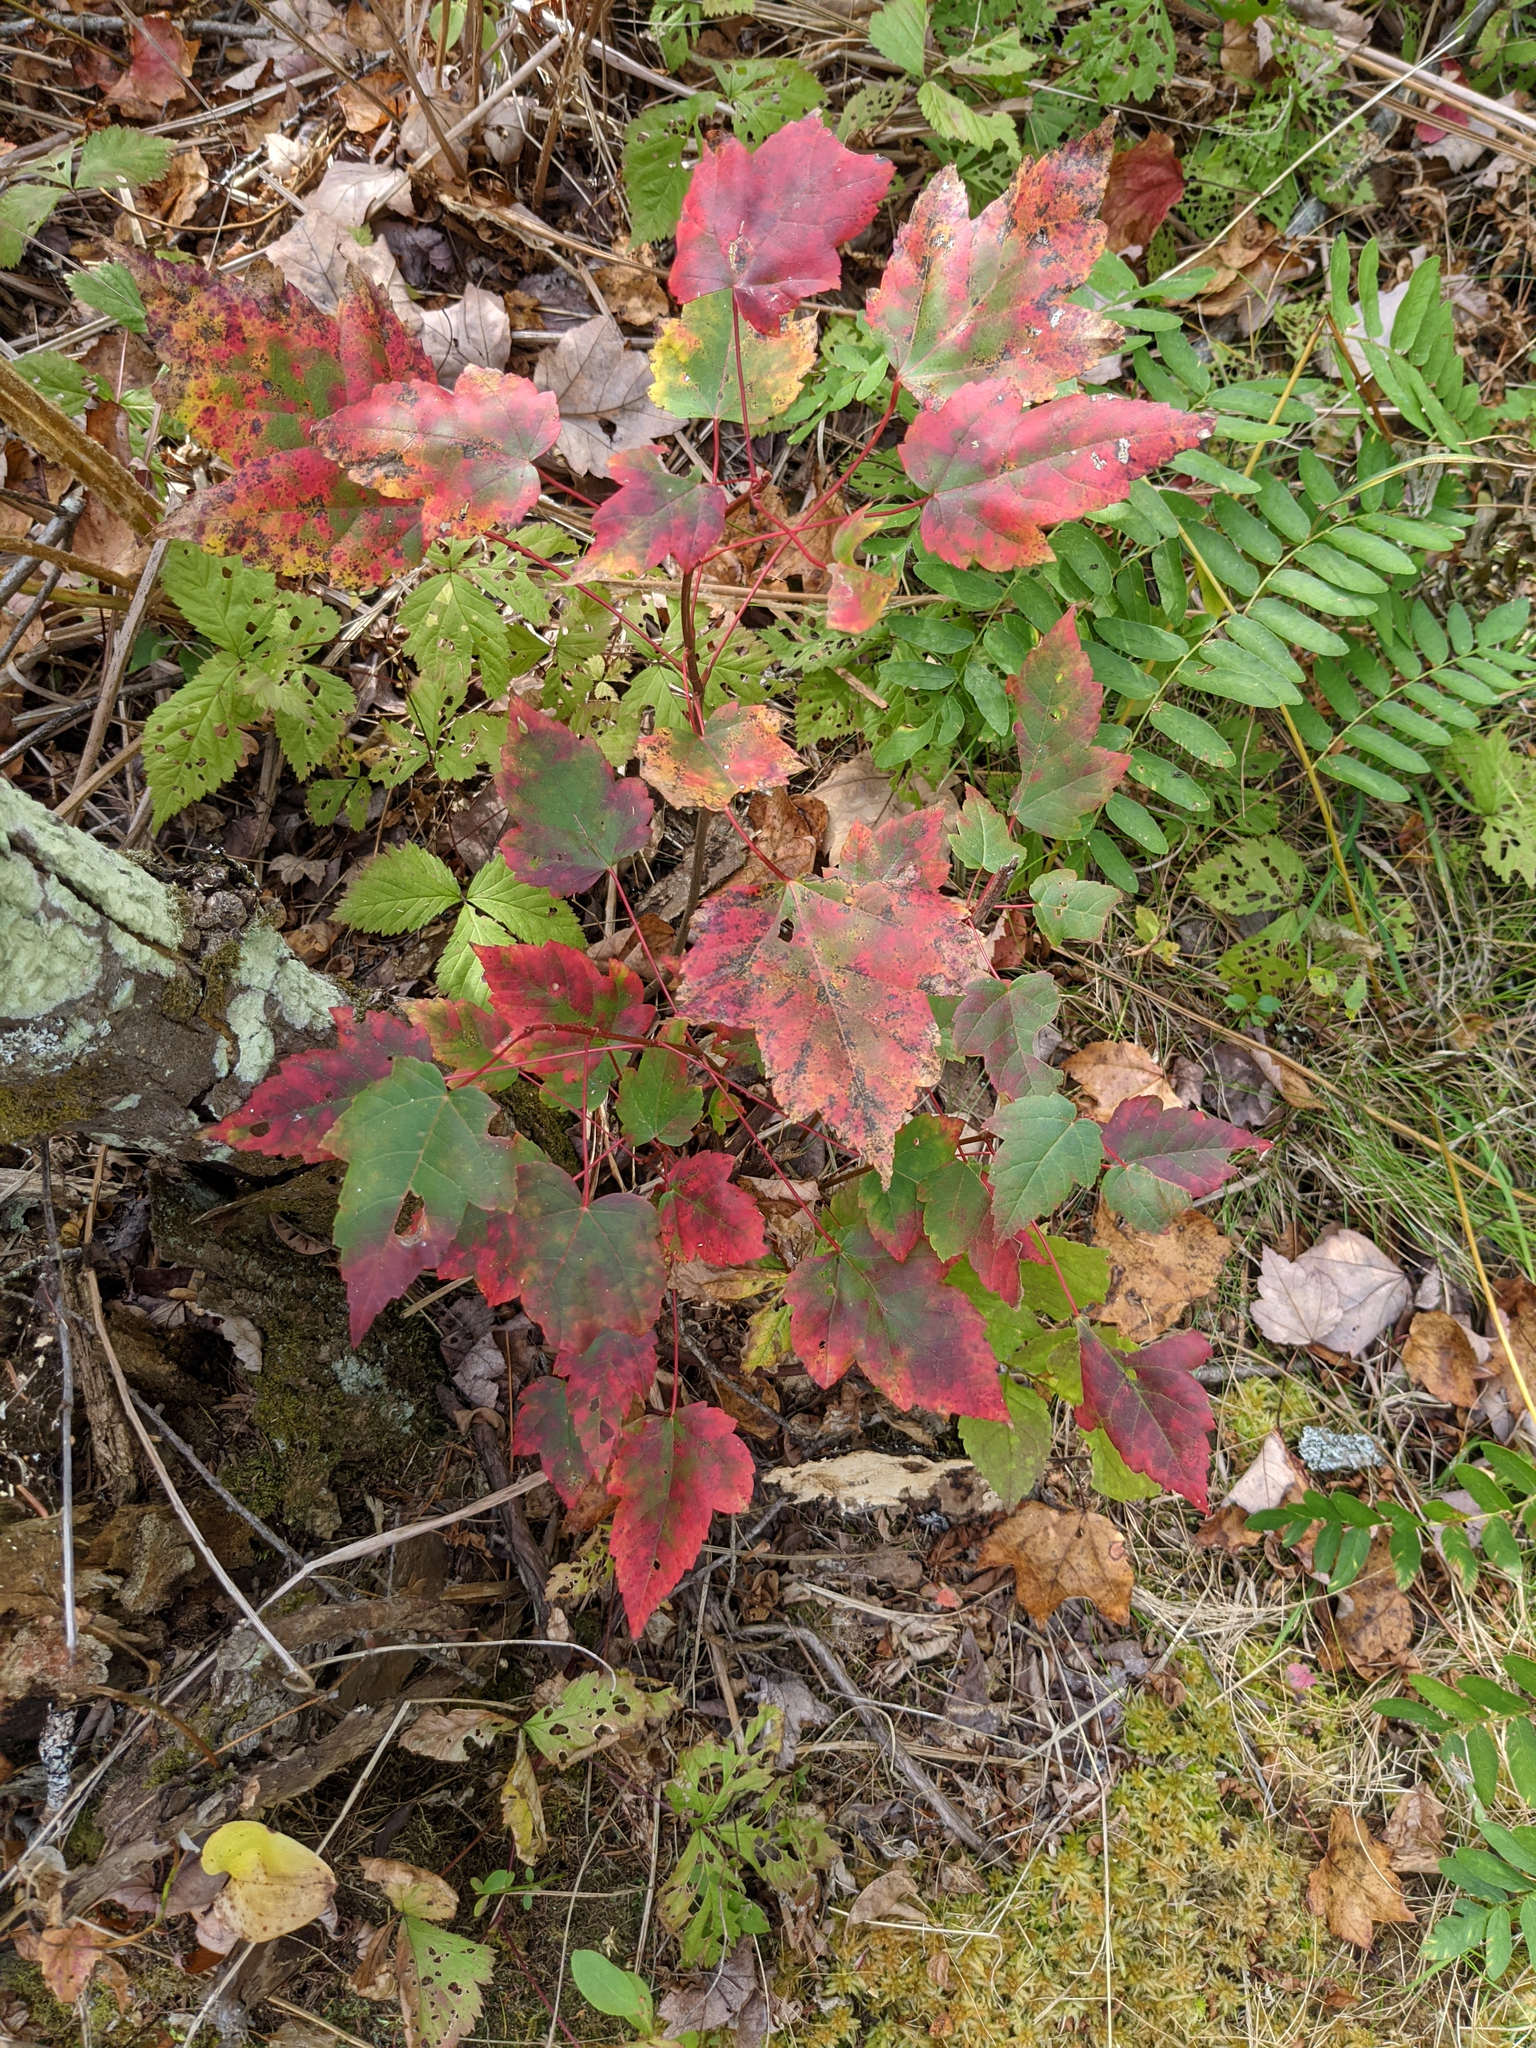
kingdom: Plantae
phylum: Tracheophyta
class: Magnoliopsida
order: Sapindales
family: Sapindaceae
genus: Acer
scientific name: Acer rubrum
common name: Red maple
